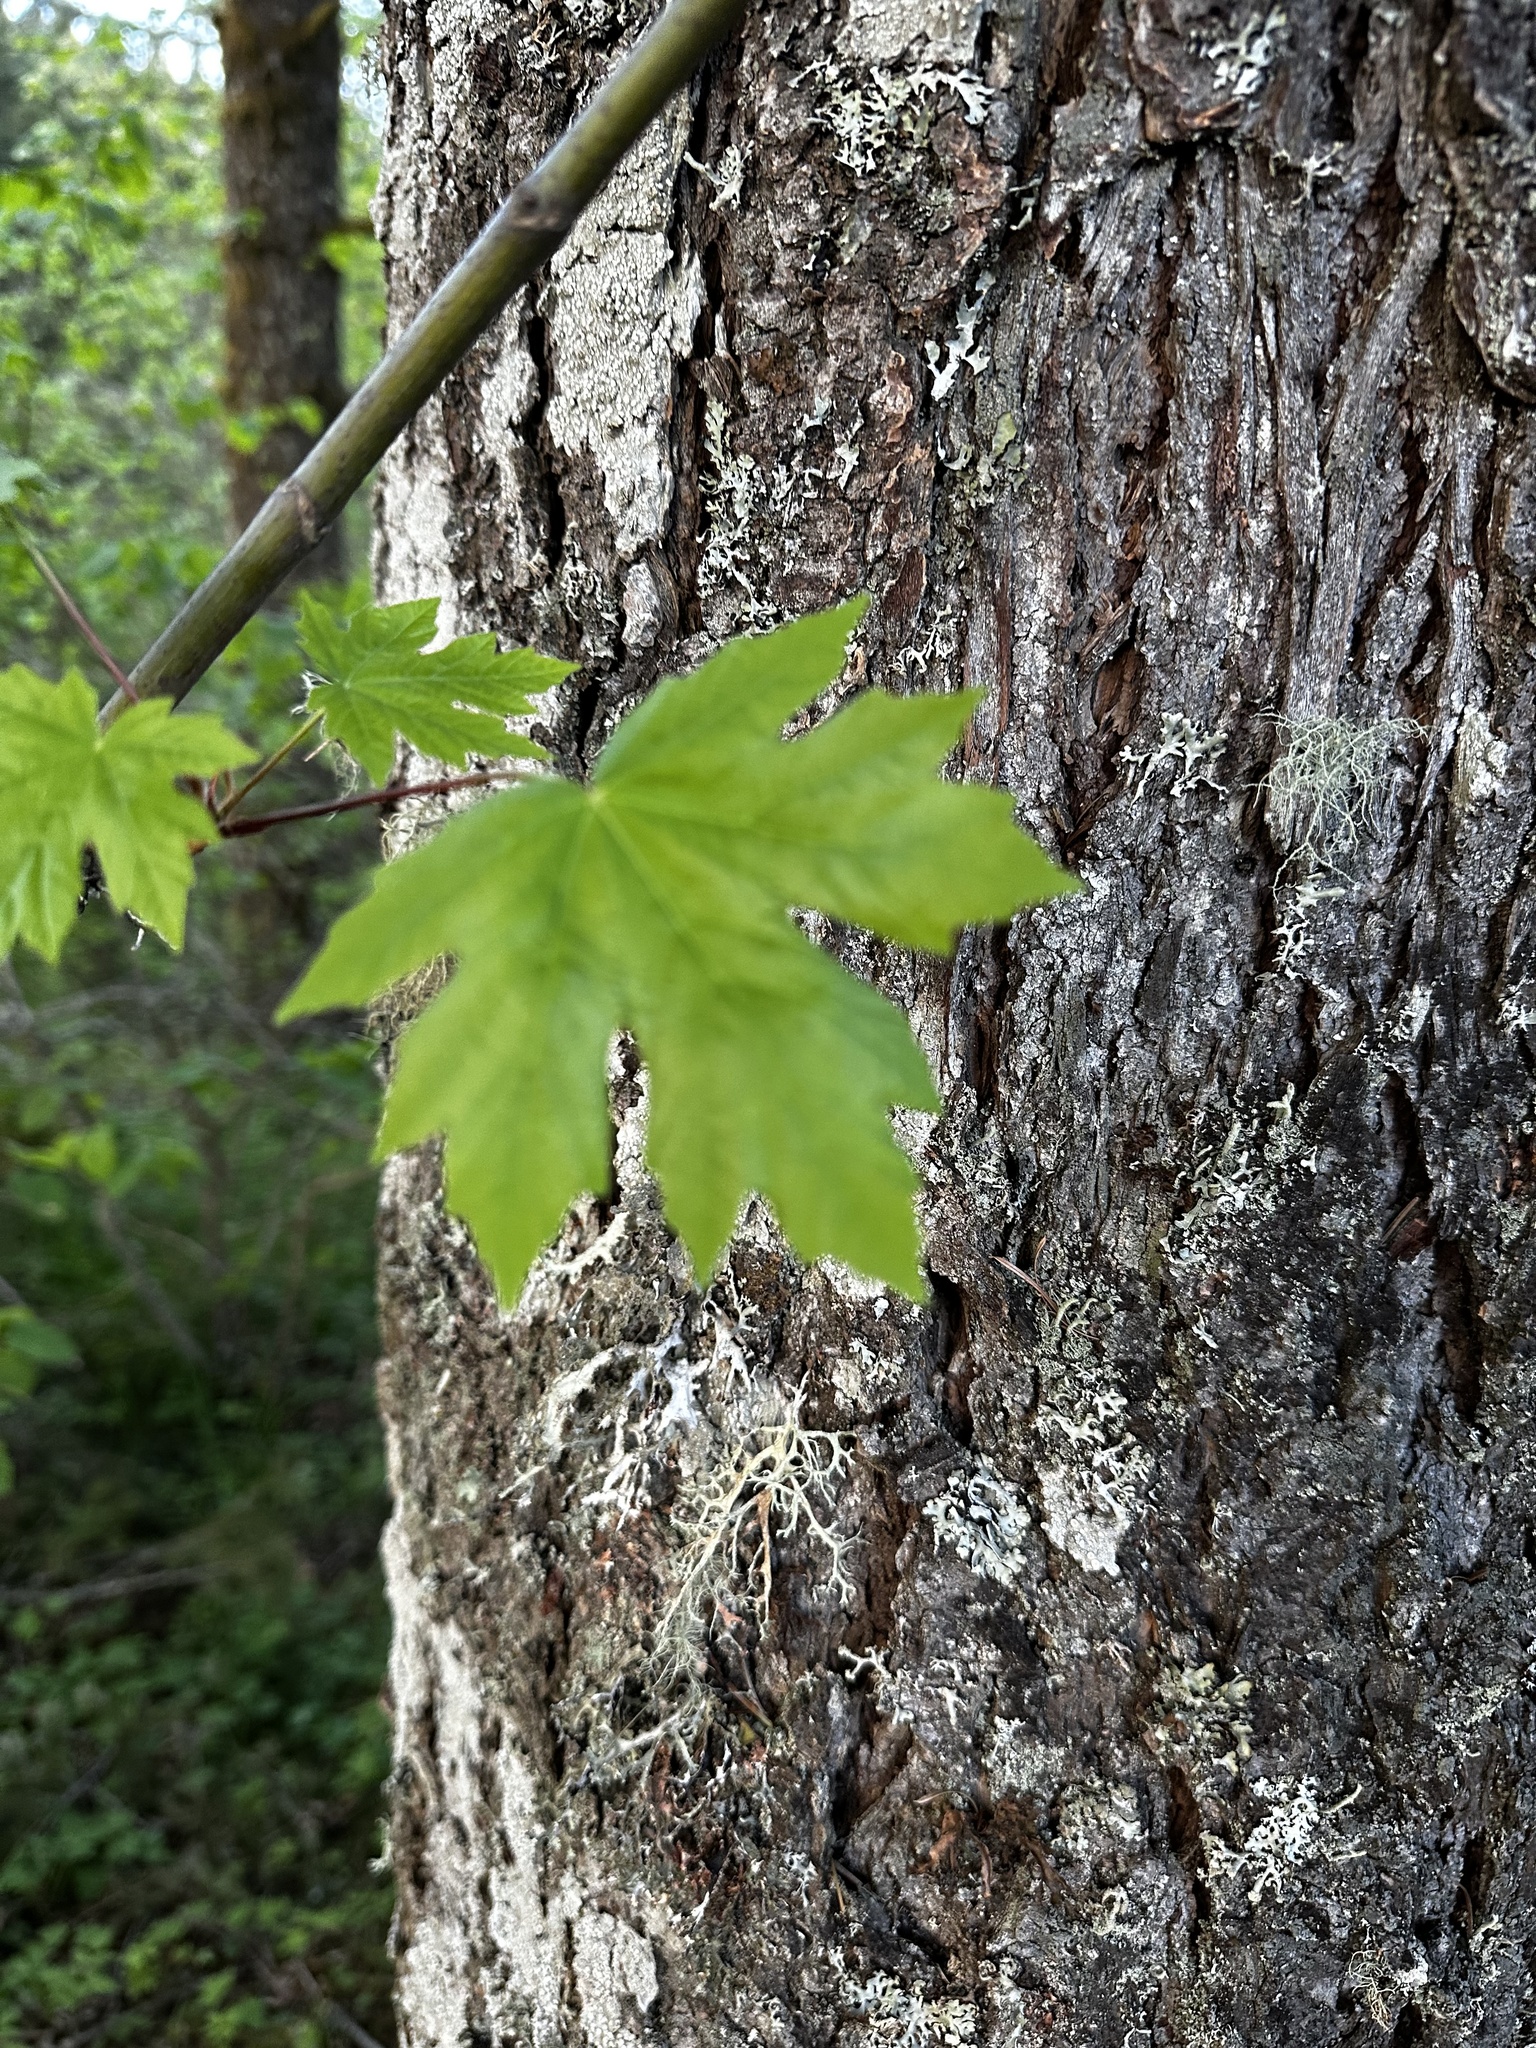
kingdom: Plantae
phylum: Tracheophyta
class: Magnoliopsida
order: Sapindales
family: Sapindaceae
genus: Acer
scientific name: Acer macrophyllum
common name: Oregon maple
